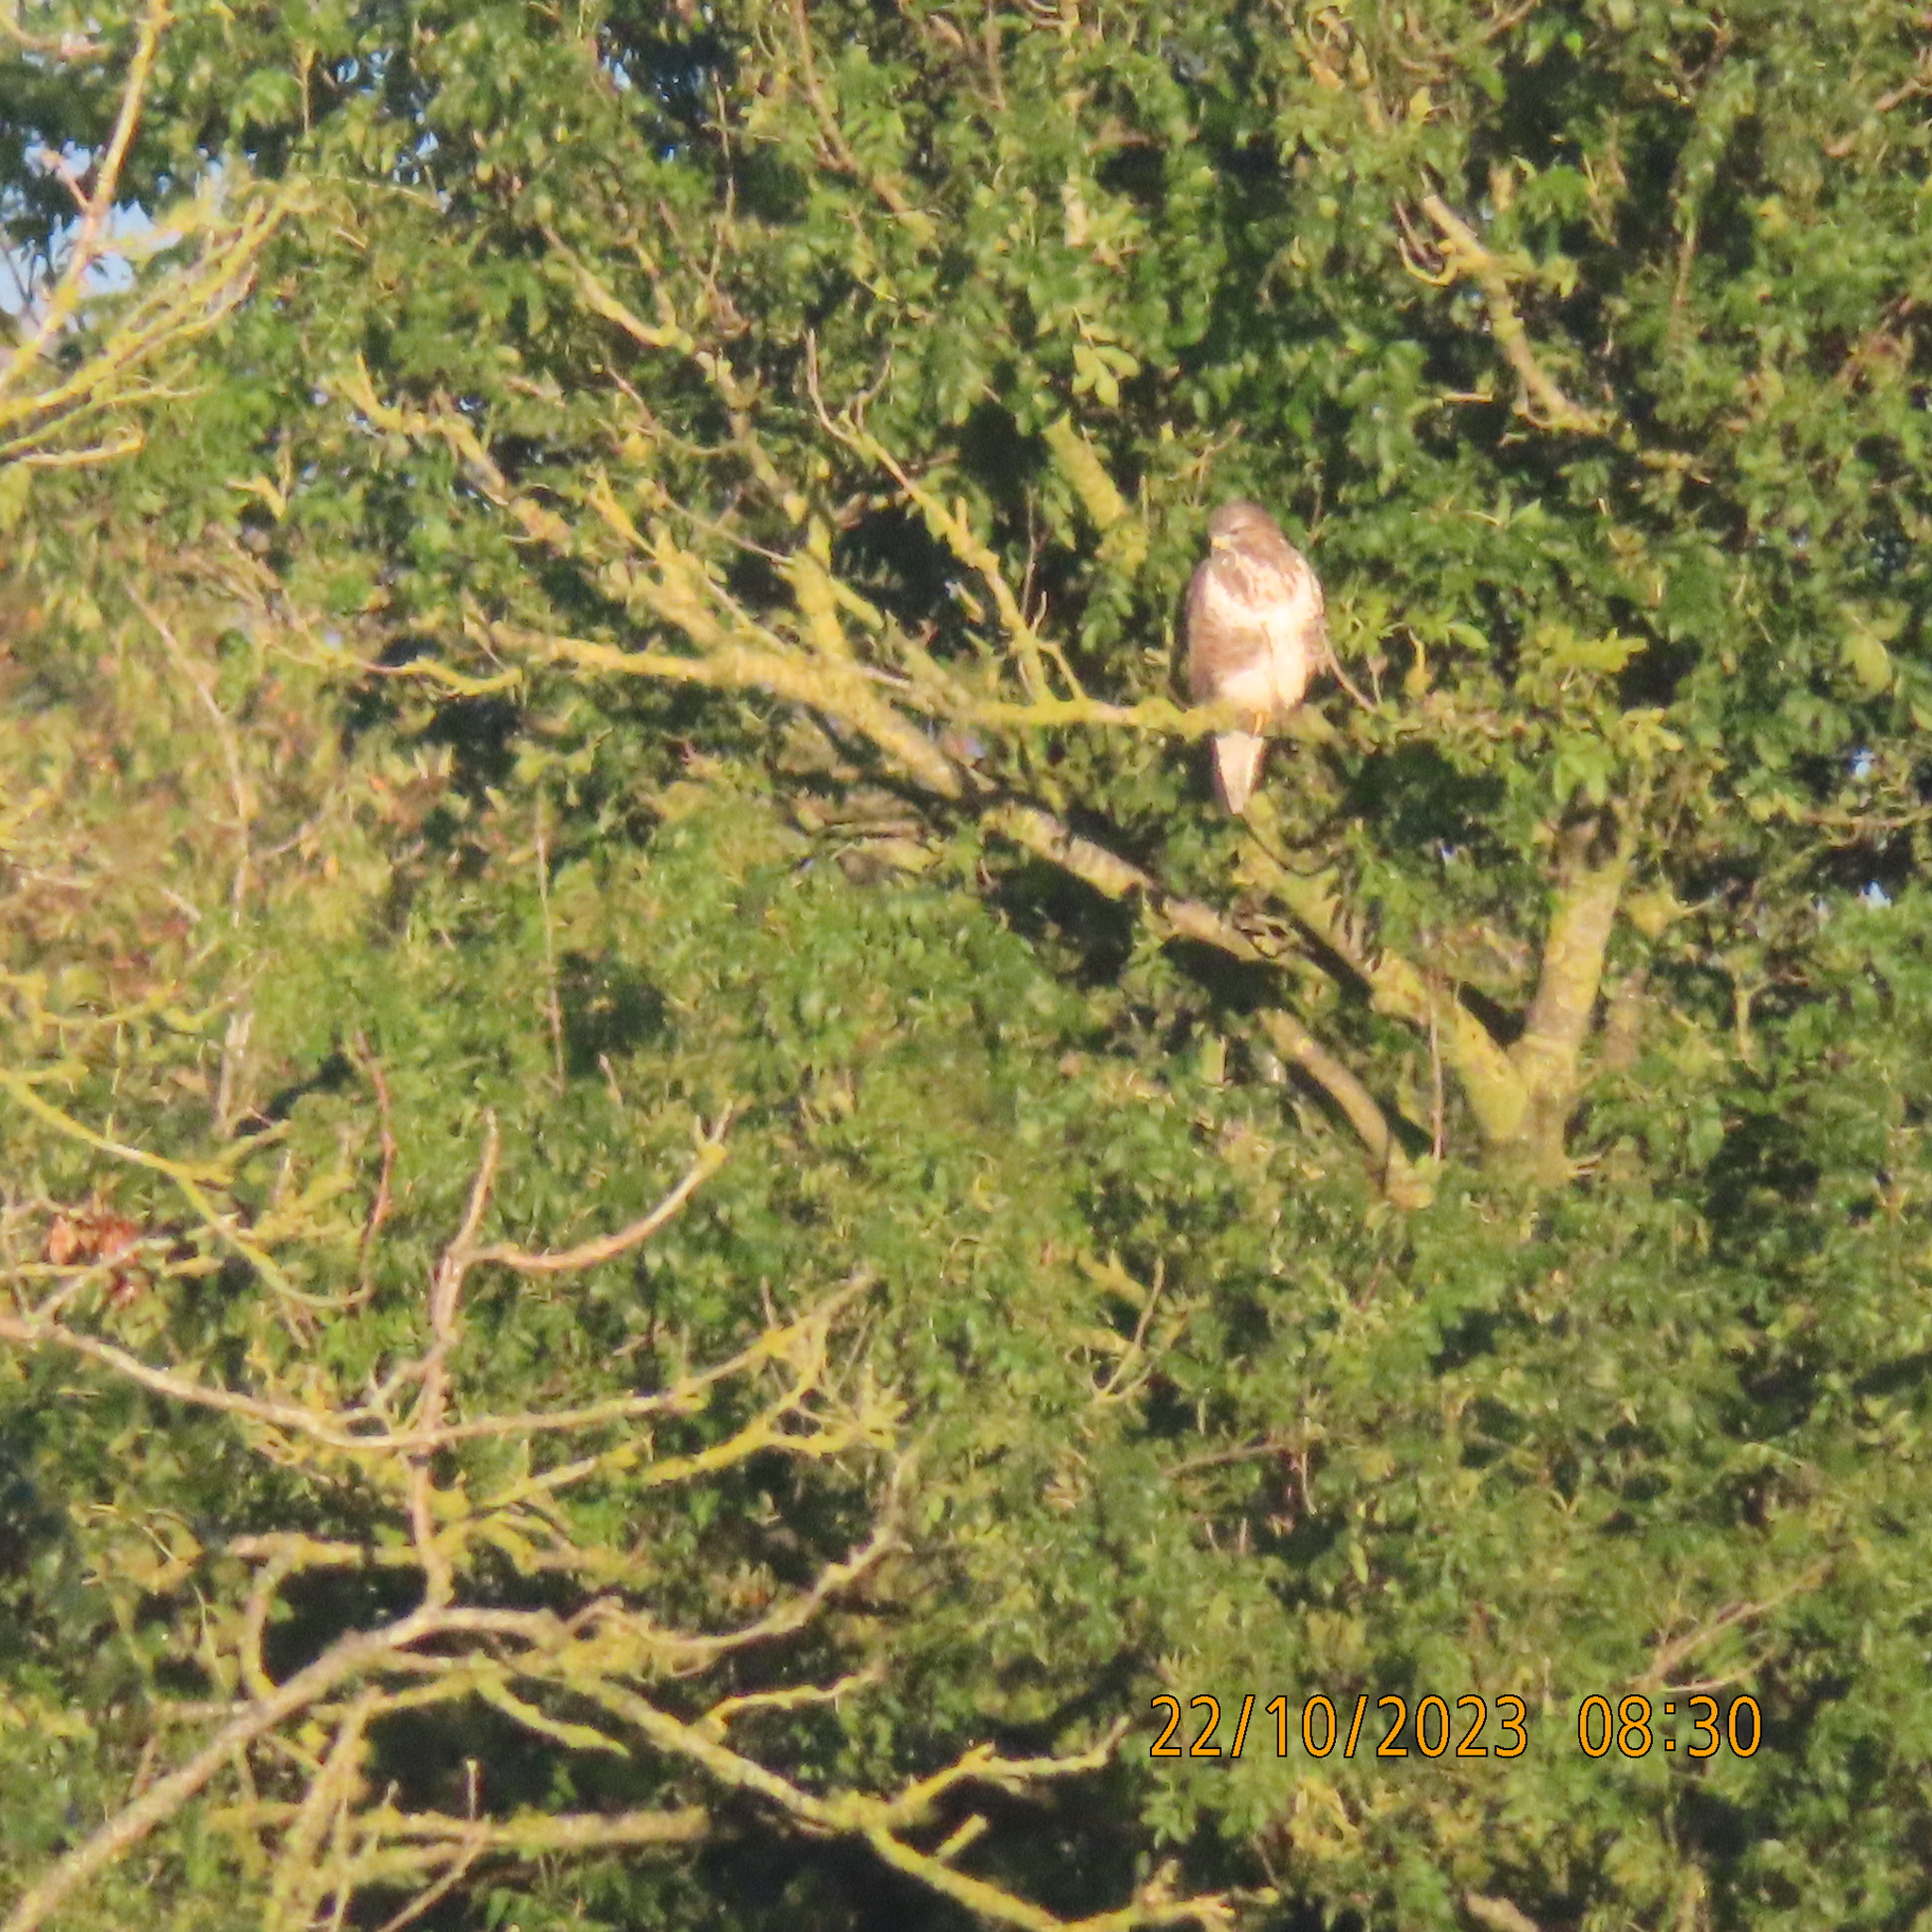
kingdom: Animalia
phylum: Chordata
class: Aves
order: Accipitriformes
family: Accipitridae
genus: Buteo
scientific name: Buteo buteo
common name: Common buzzard
